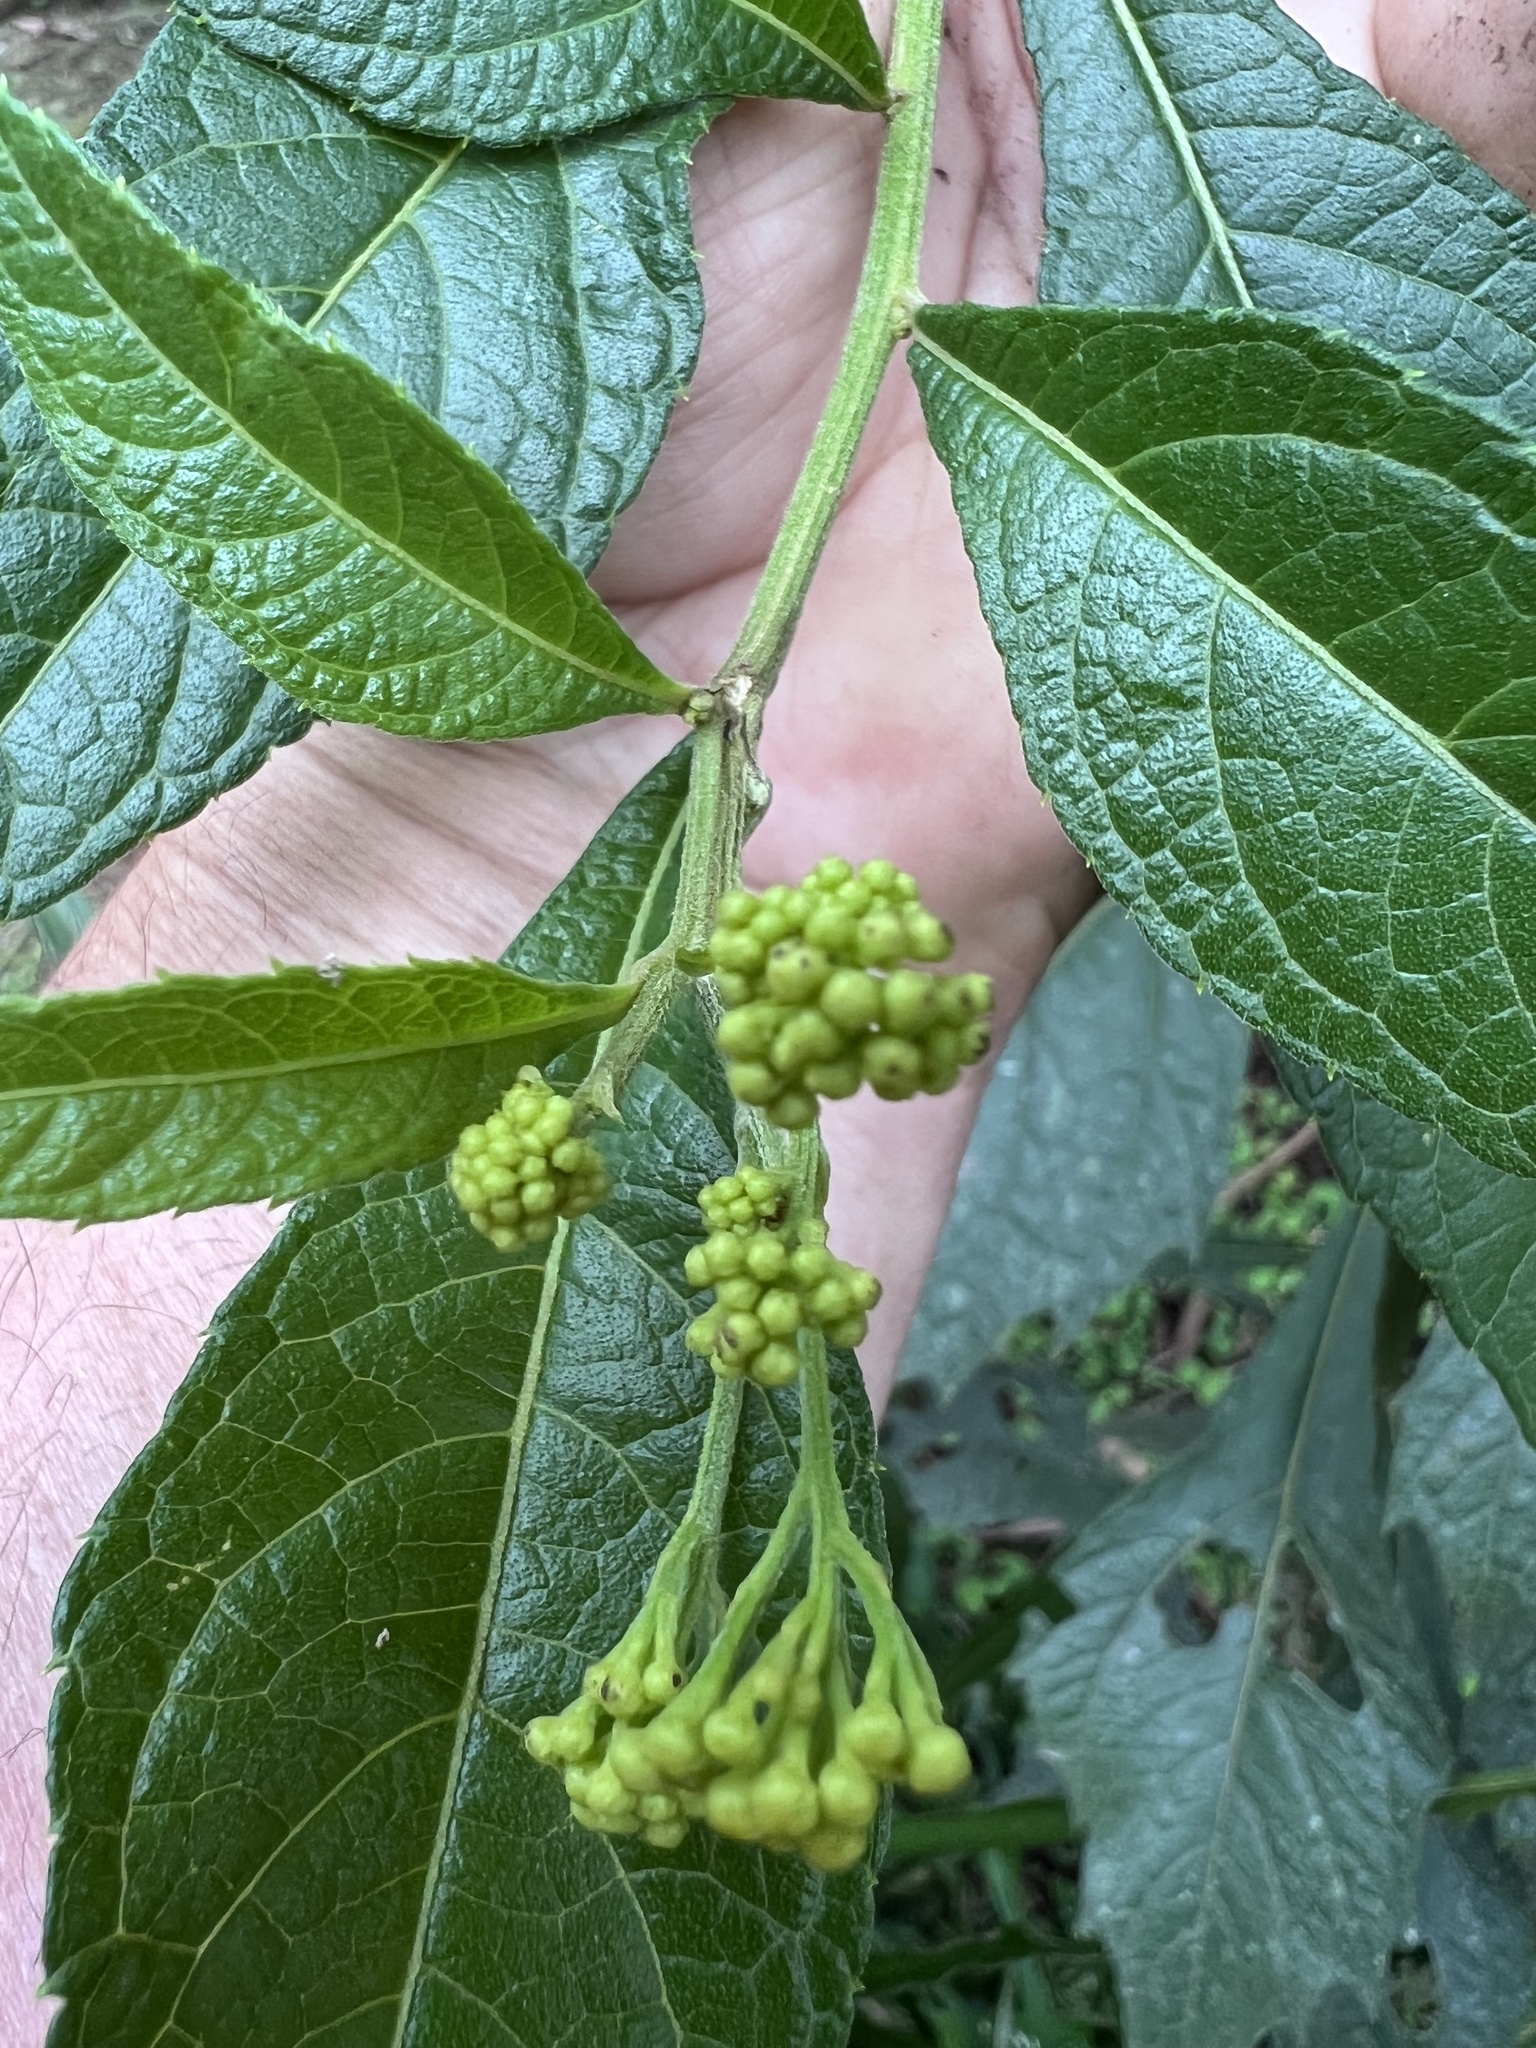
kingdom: Plantae
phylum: Tracheophyta
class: Magnoliopsida
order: Asterales
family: Asteraceae
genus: Neurolaena
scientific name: Neurolaena lobata
